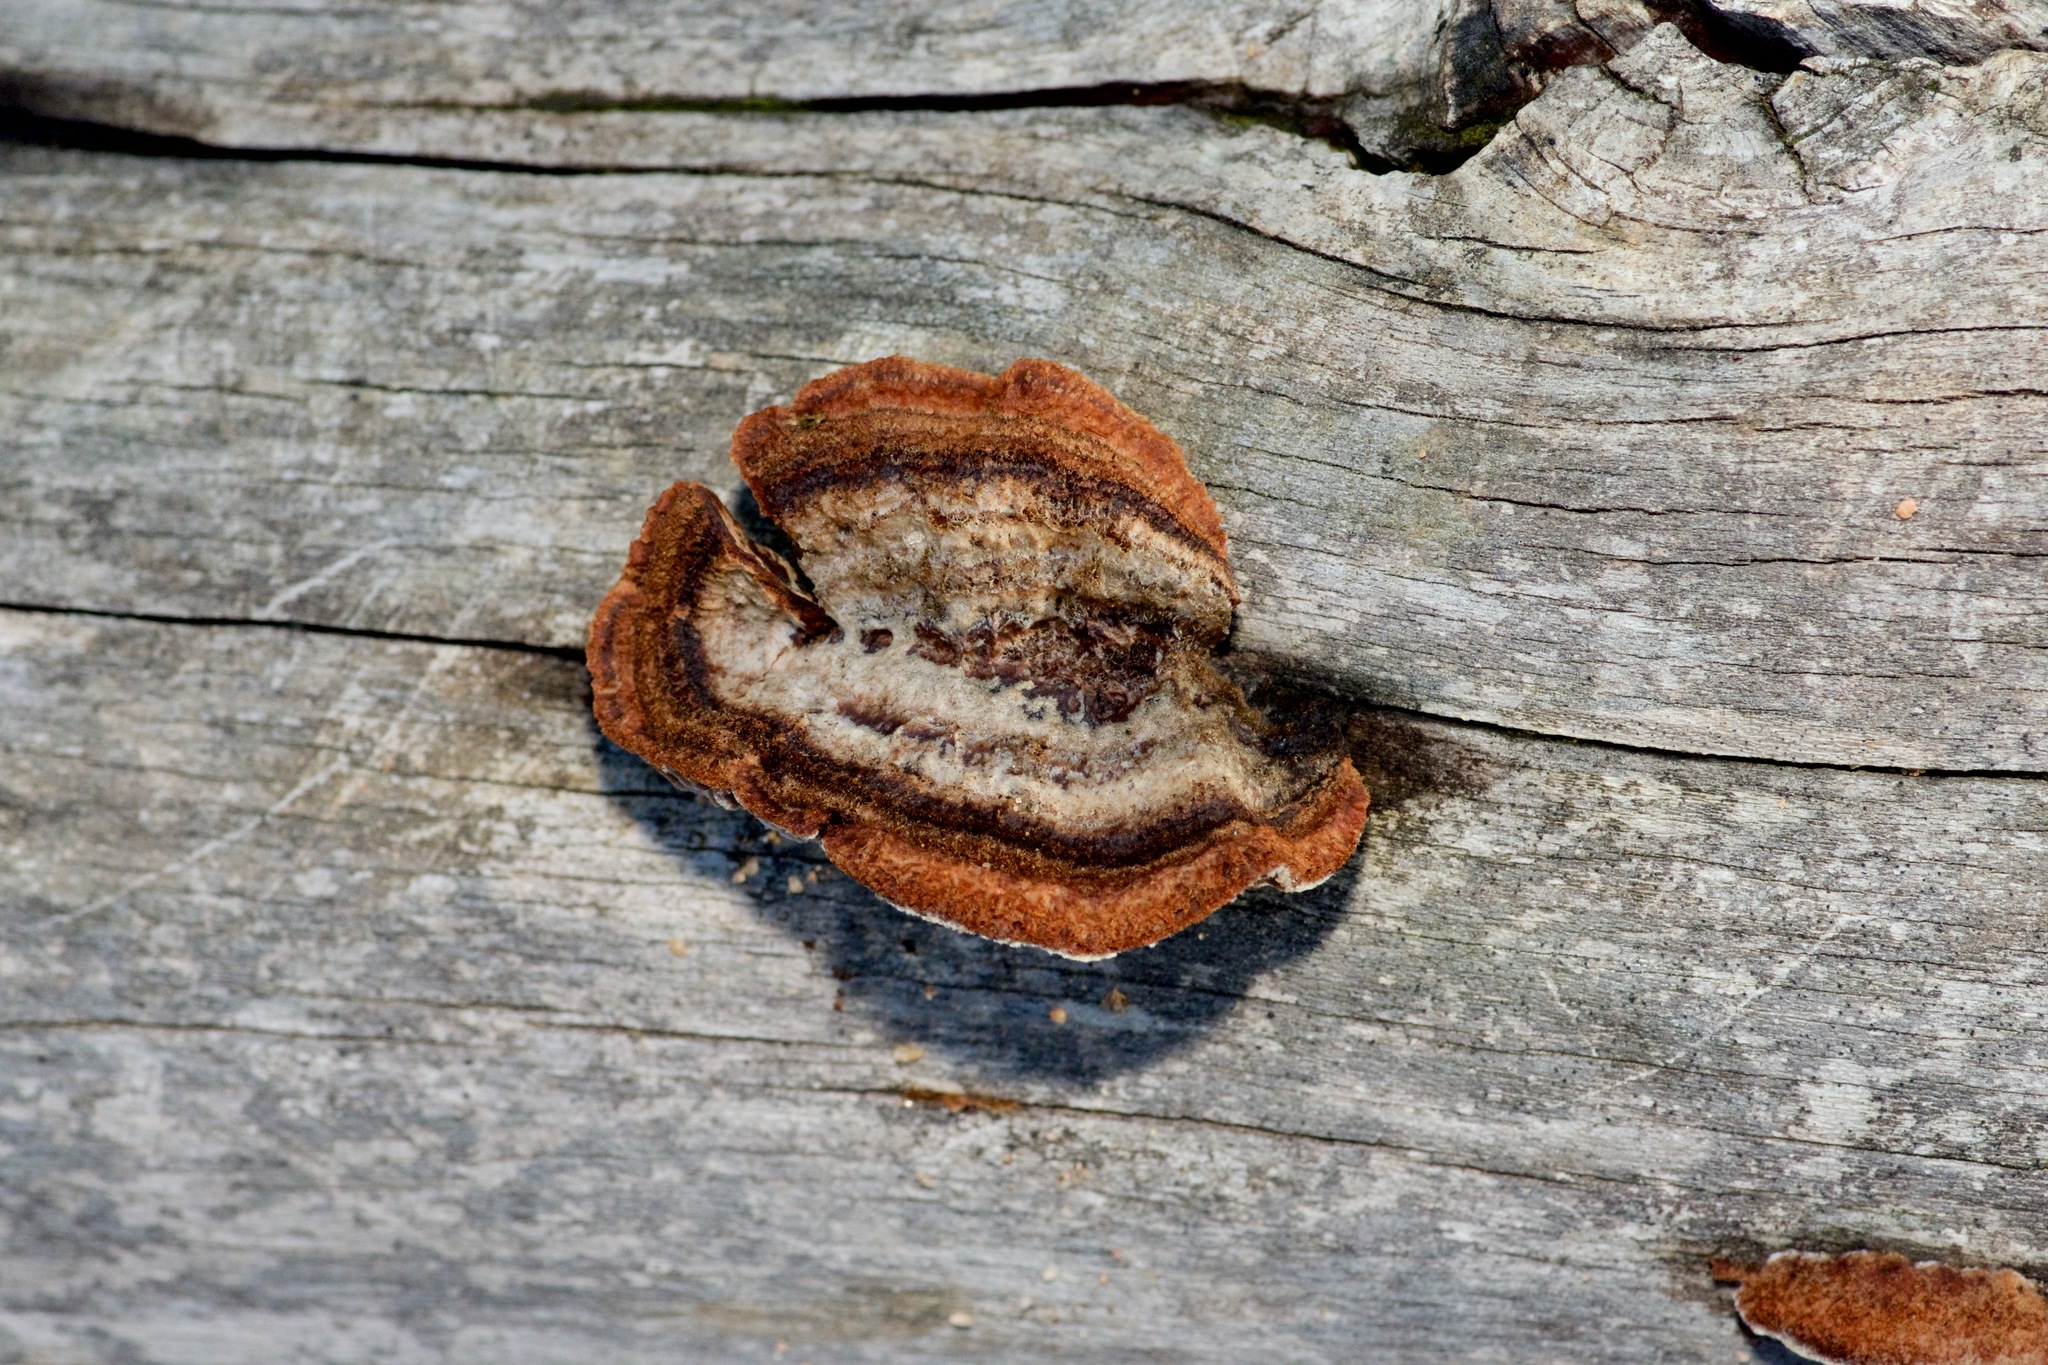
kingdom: Fungi
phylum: Basidiomycota
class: Agaricomycetes
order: Gloeophyllales
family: Gloeophyllaceae
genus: Gloeophyllum
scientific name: Gloeophyllum sepiarium
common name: Conifer mazegill
